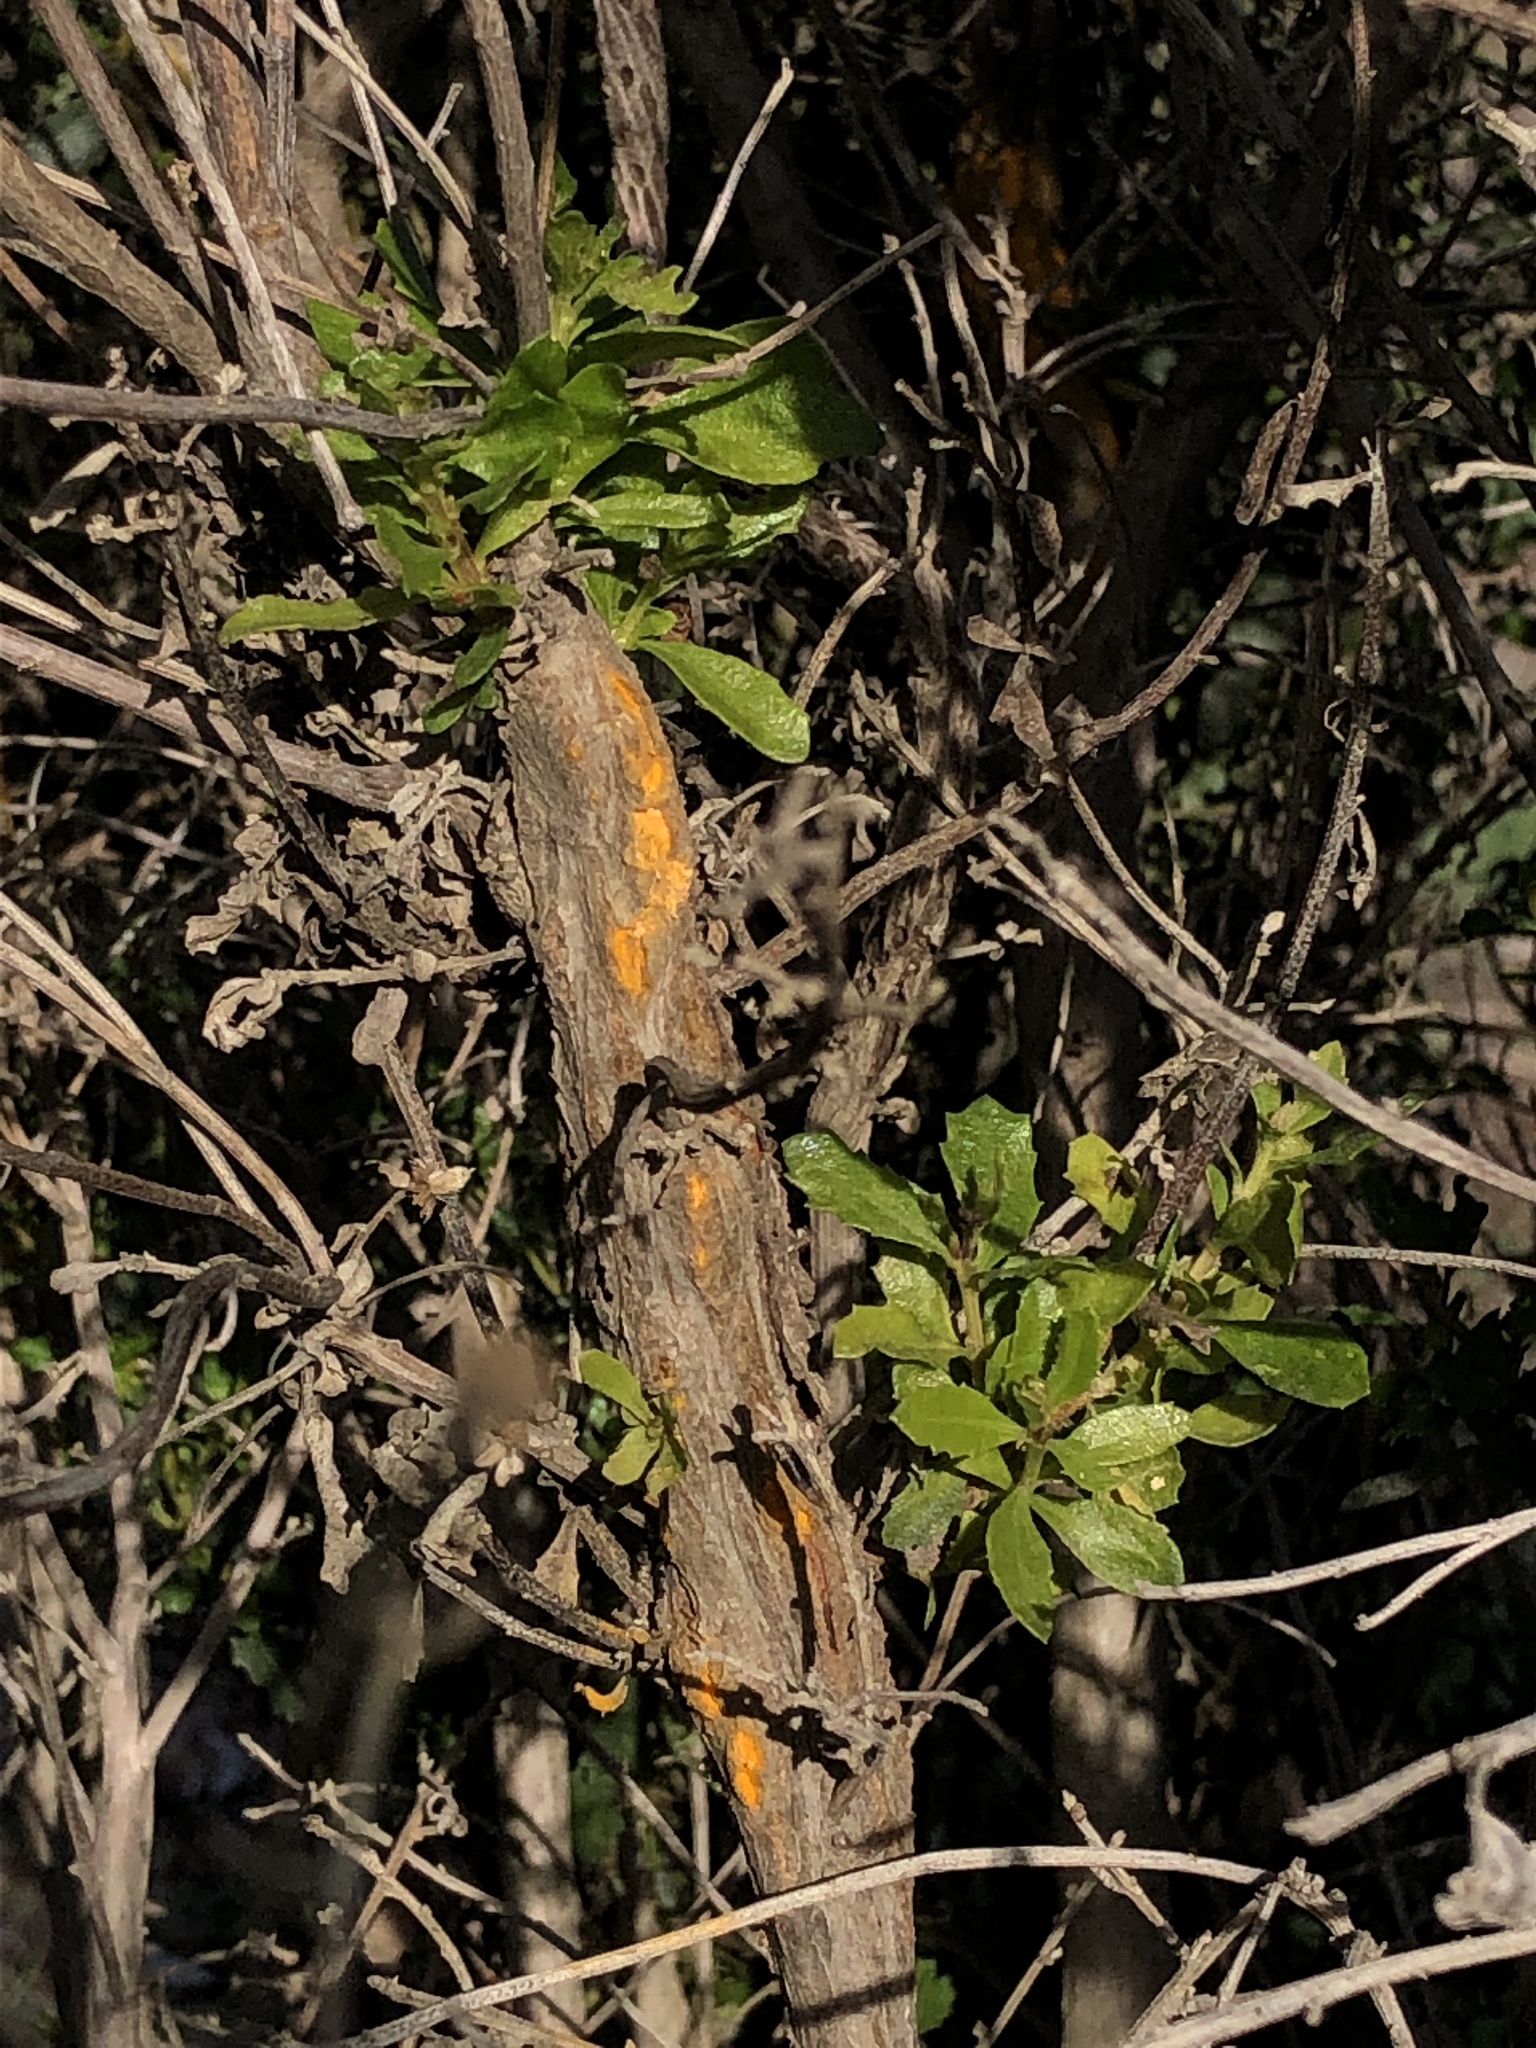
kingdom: Fungi
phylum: Basidiomycota
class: Pucciniomycetes
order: Pucciniales
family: Pucciniaceae
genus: Eriosporangium
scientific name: Eriosporangium evadens
